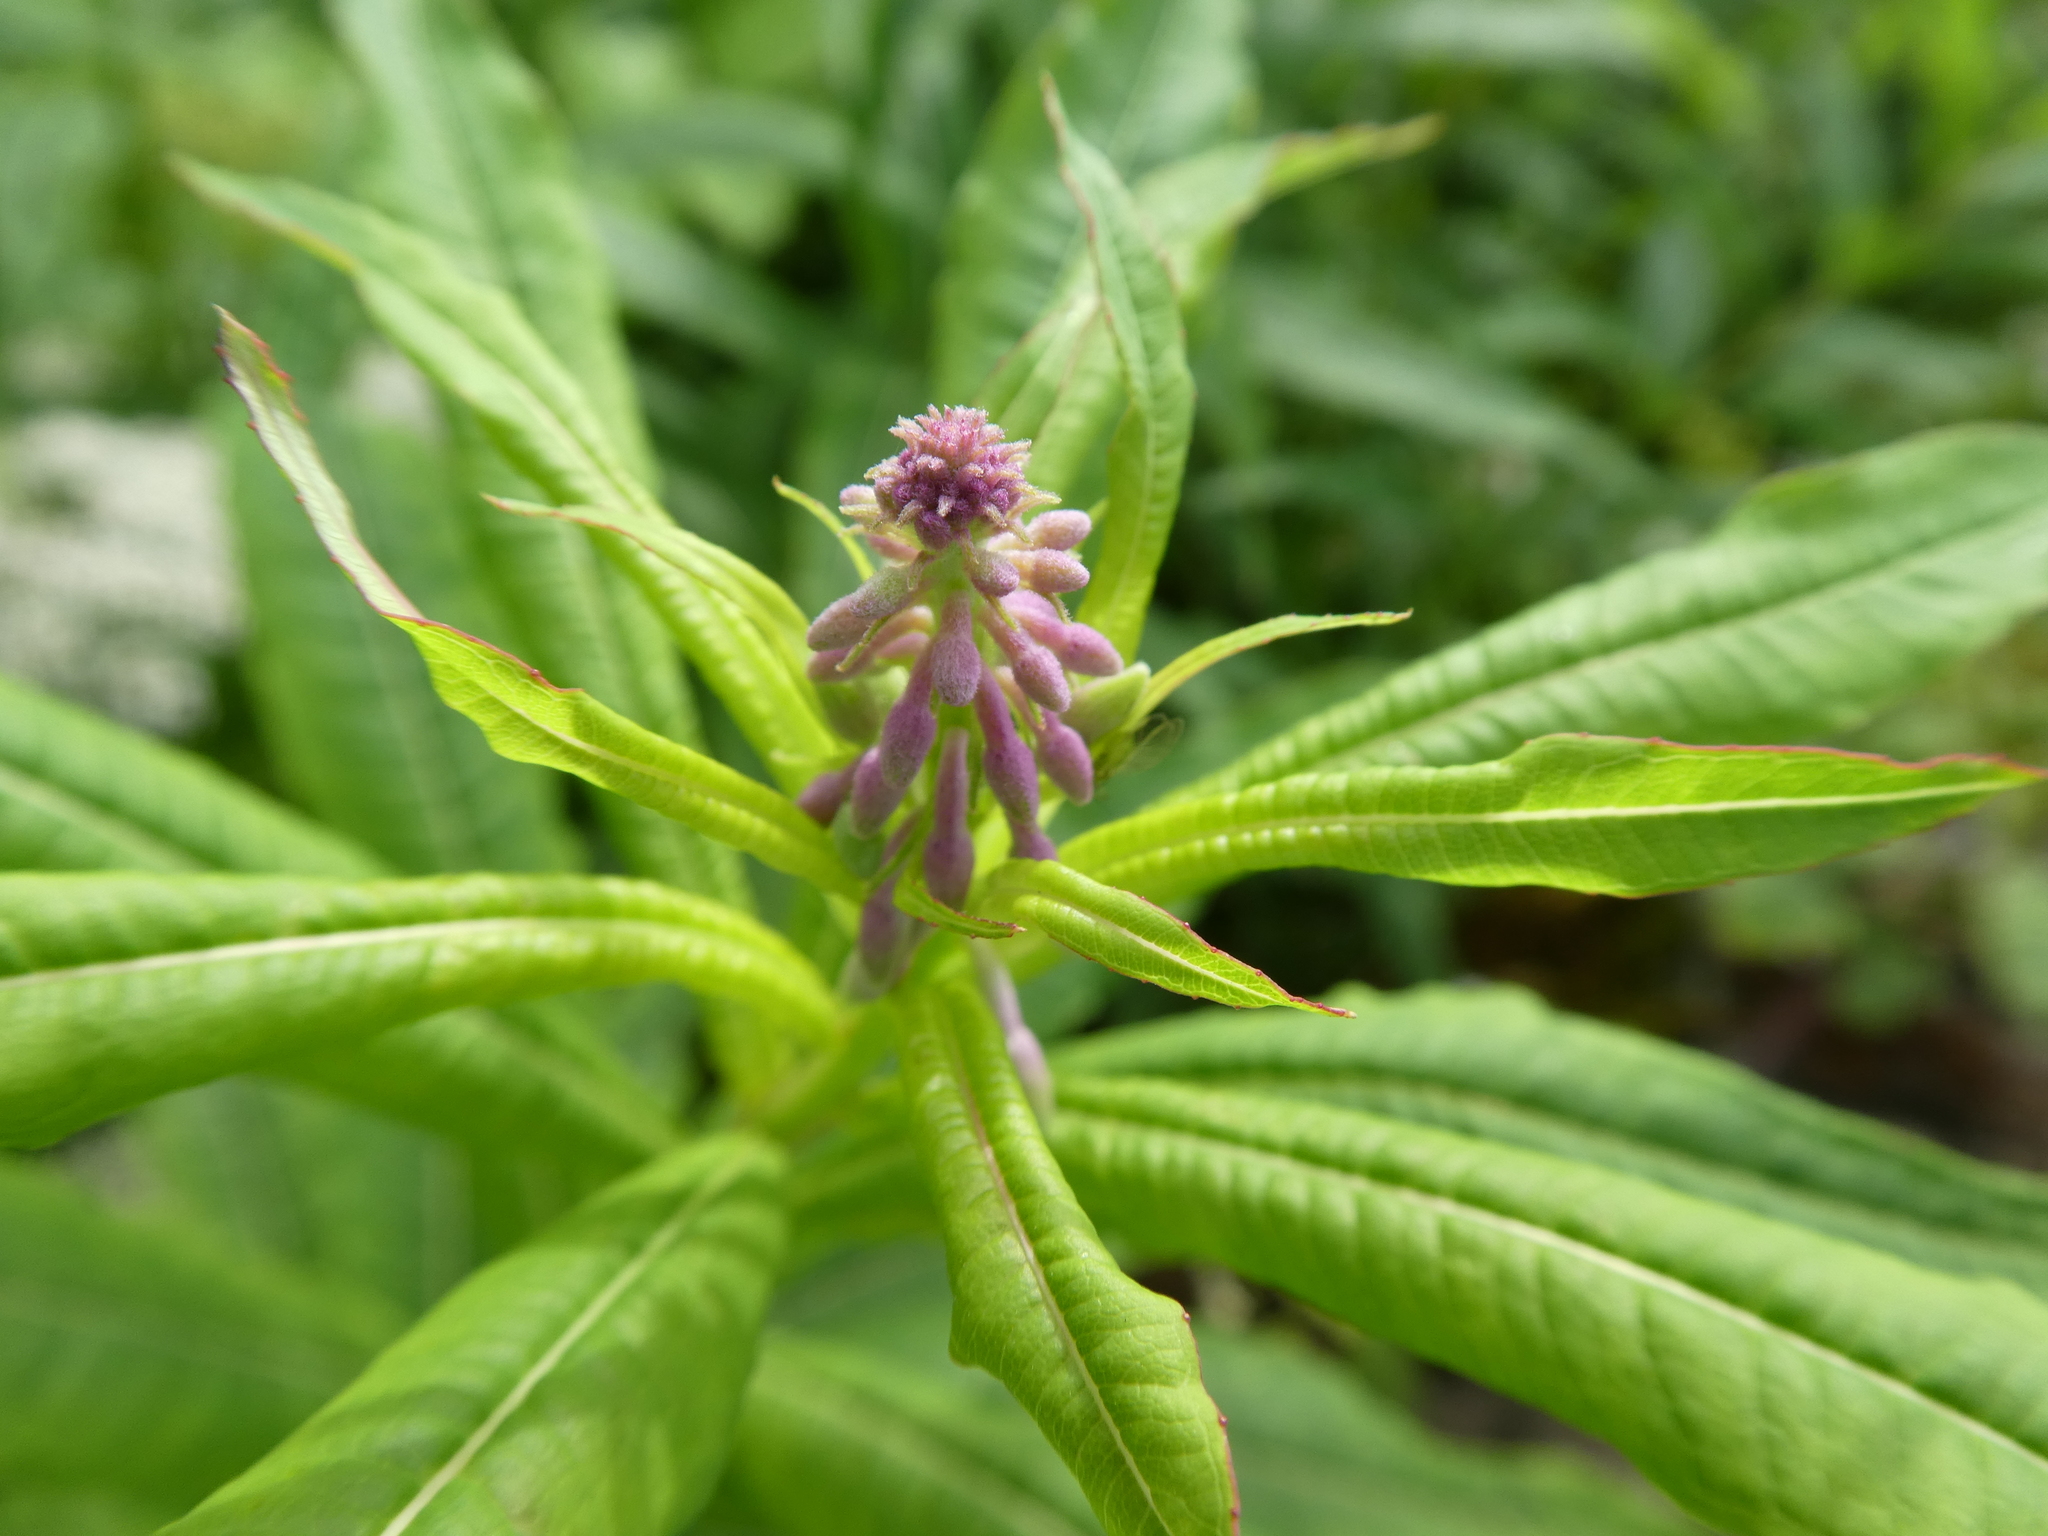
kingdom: Plantae
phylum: Tracheophyta
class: Magnoliopsida
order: Myrtales
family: Onagraceae
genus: Chamaenerion
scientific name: Chamaenerion angustifolium
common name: Fireweed
